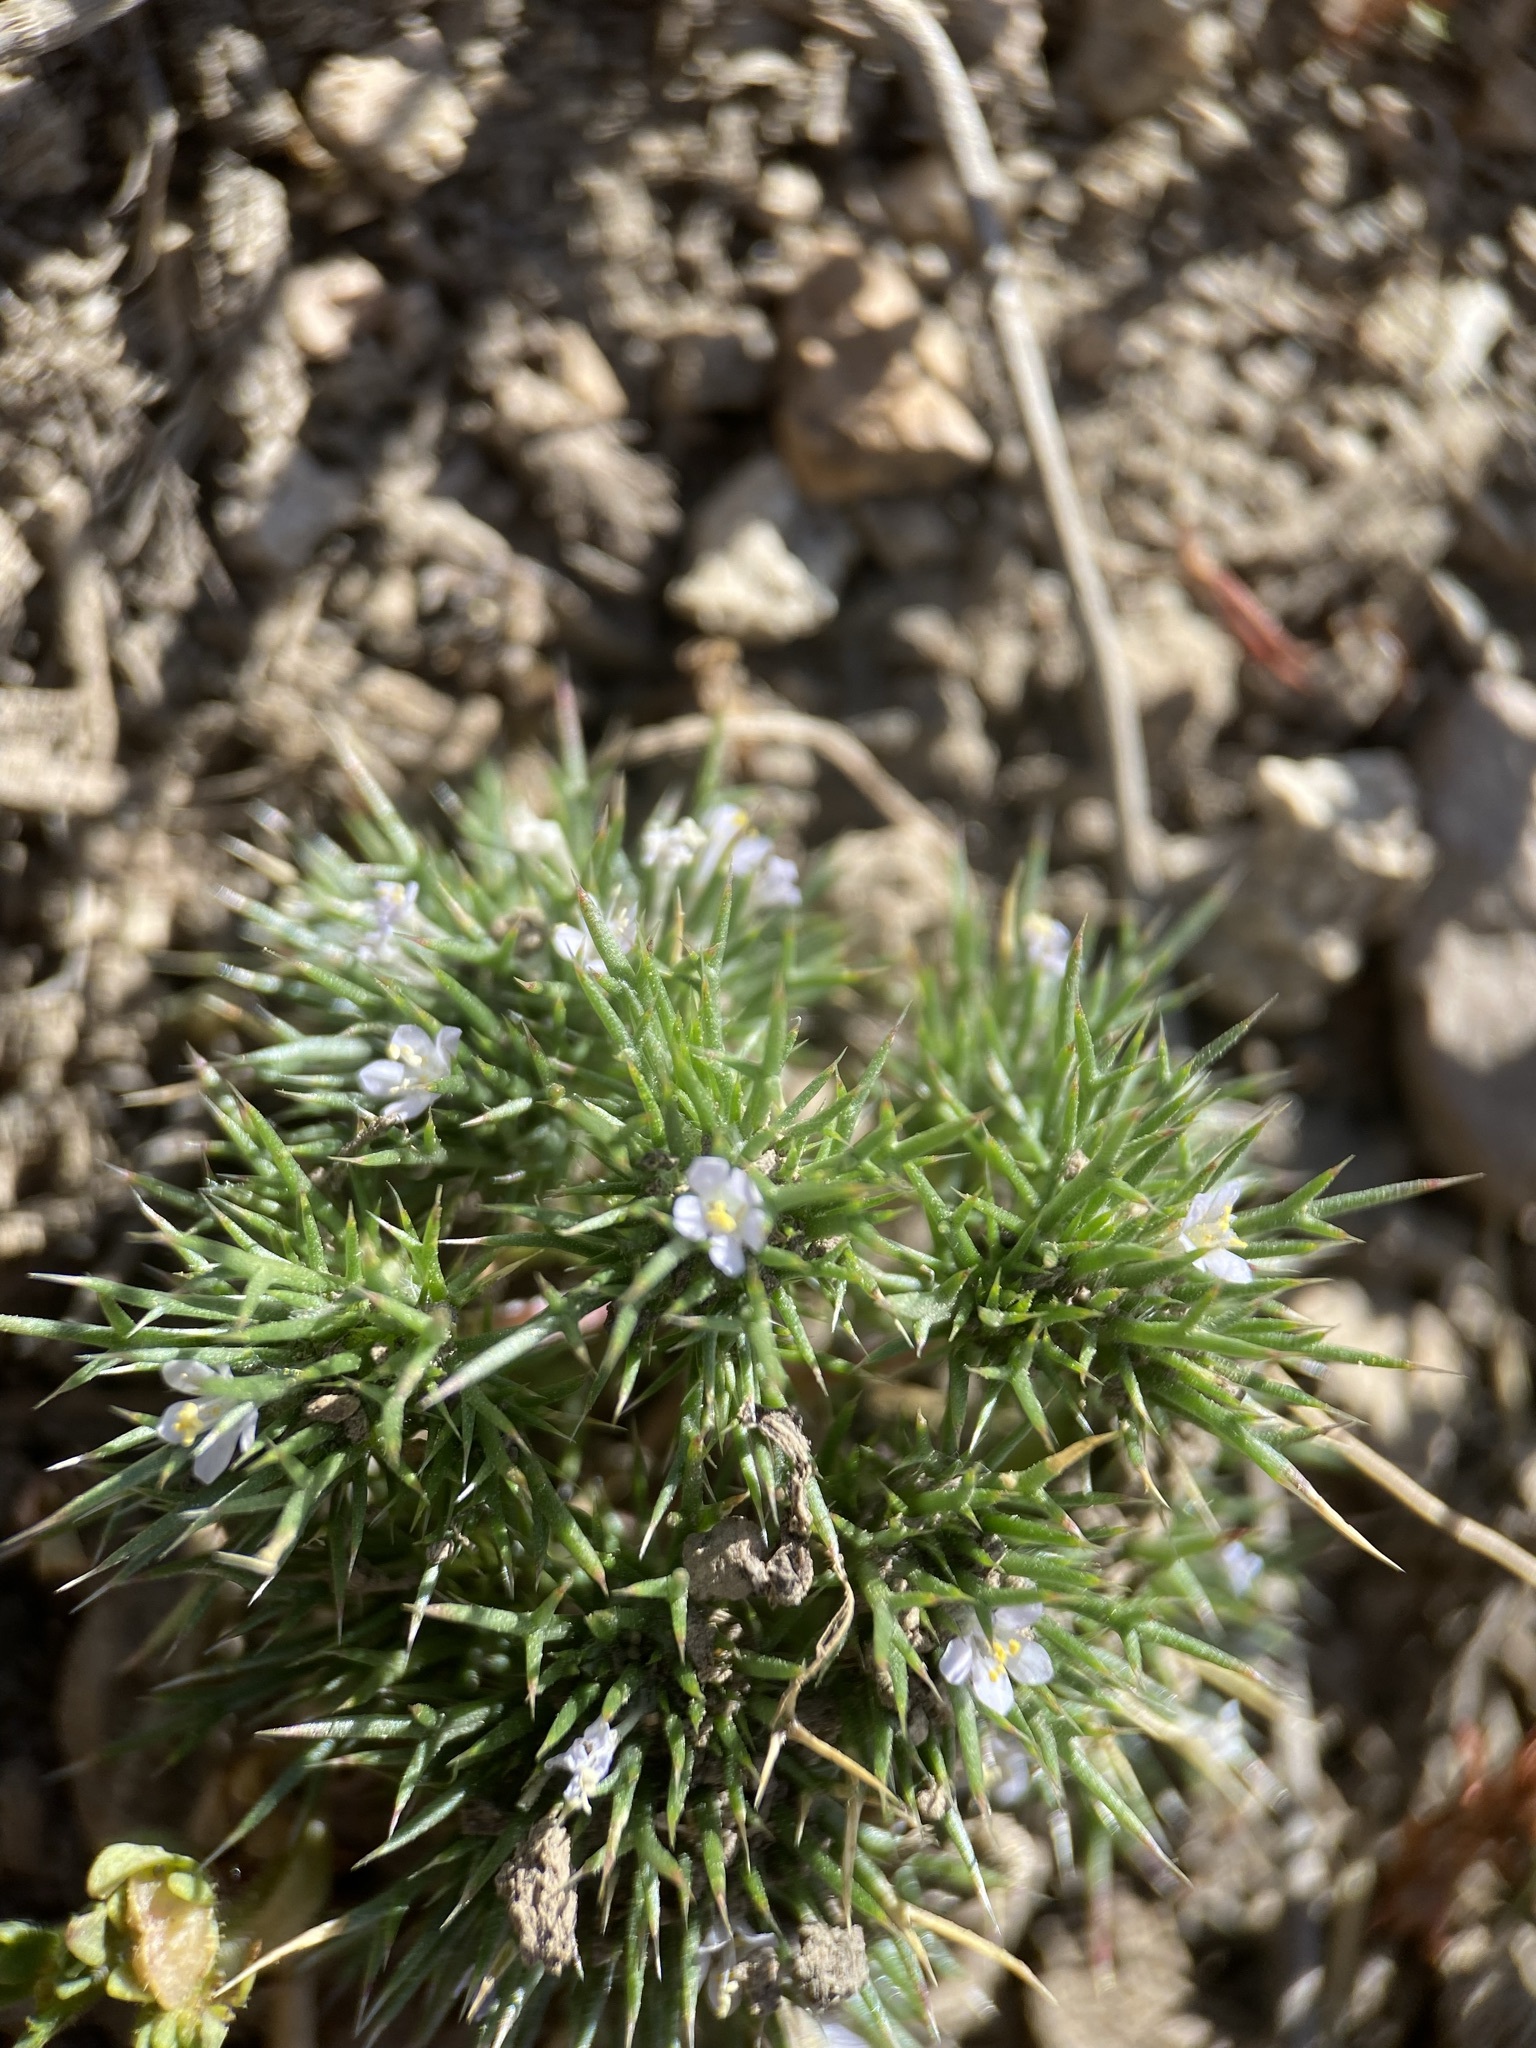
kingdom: Plantae
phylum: Tracheophyta
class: Magnoliopsida
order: Ericales
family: Polemoniaceae
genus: Navarretia
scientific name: Navarretia intertexta
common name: Needle-leaved navarretia
